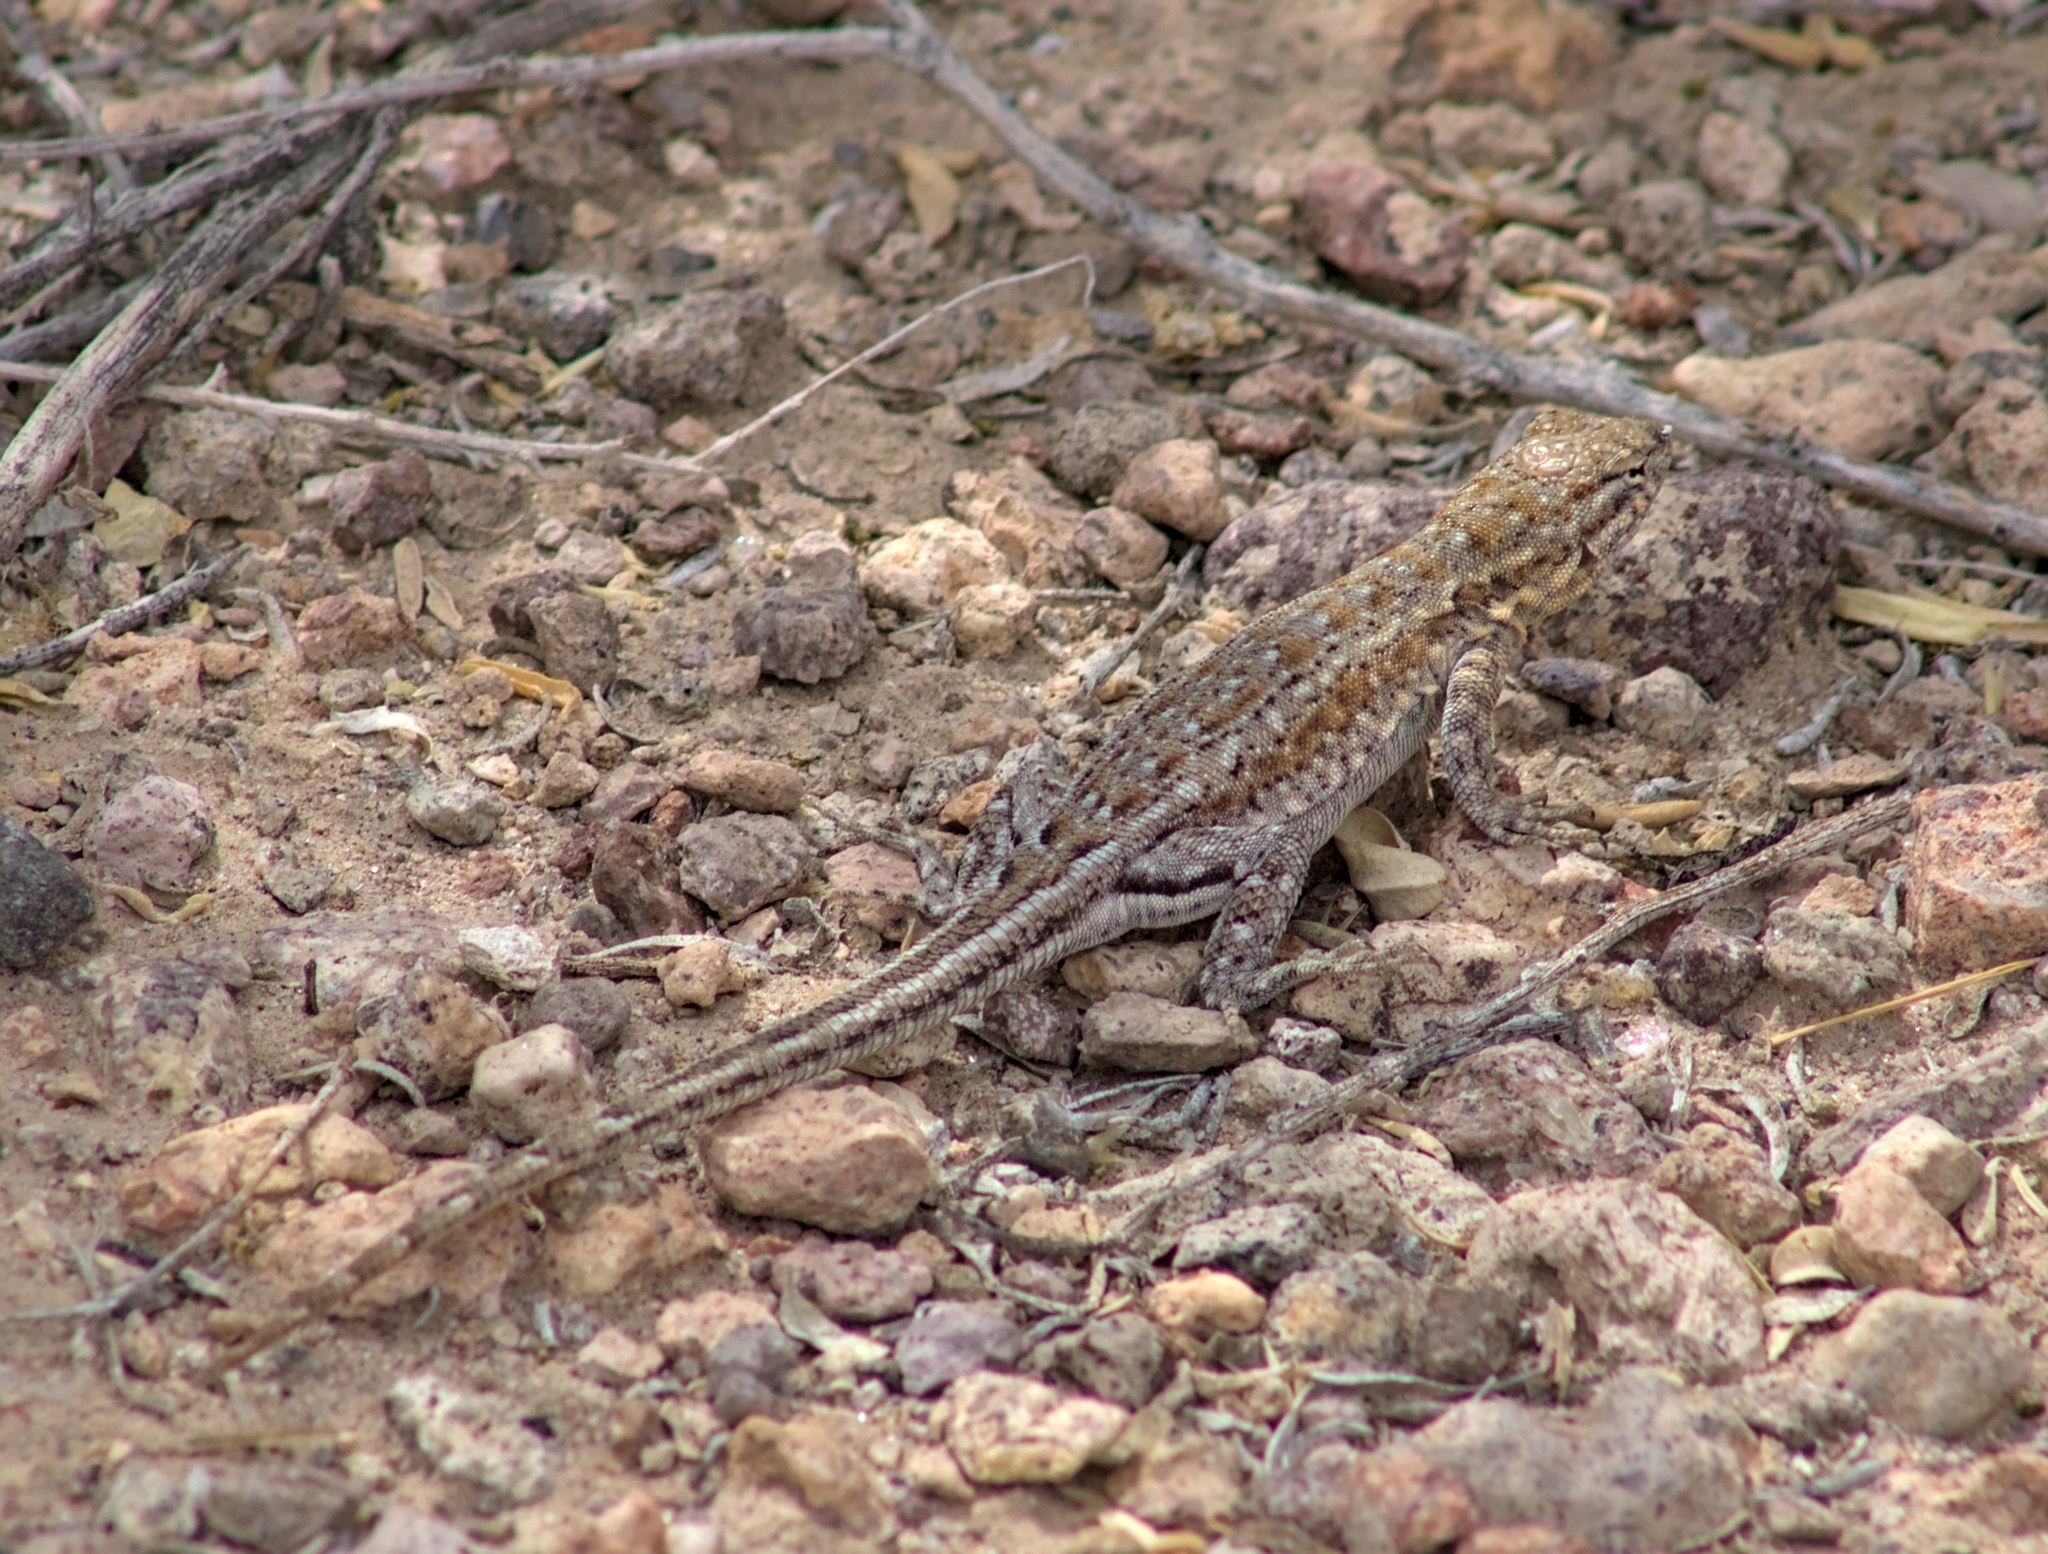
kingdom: Animalia
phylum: Chordata
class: Squamata
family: Phrynosomatidae
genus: Uta
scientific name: Uta stansburiana
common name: Side-blotched lizard
